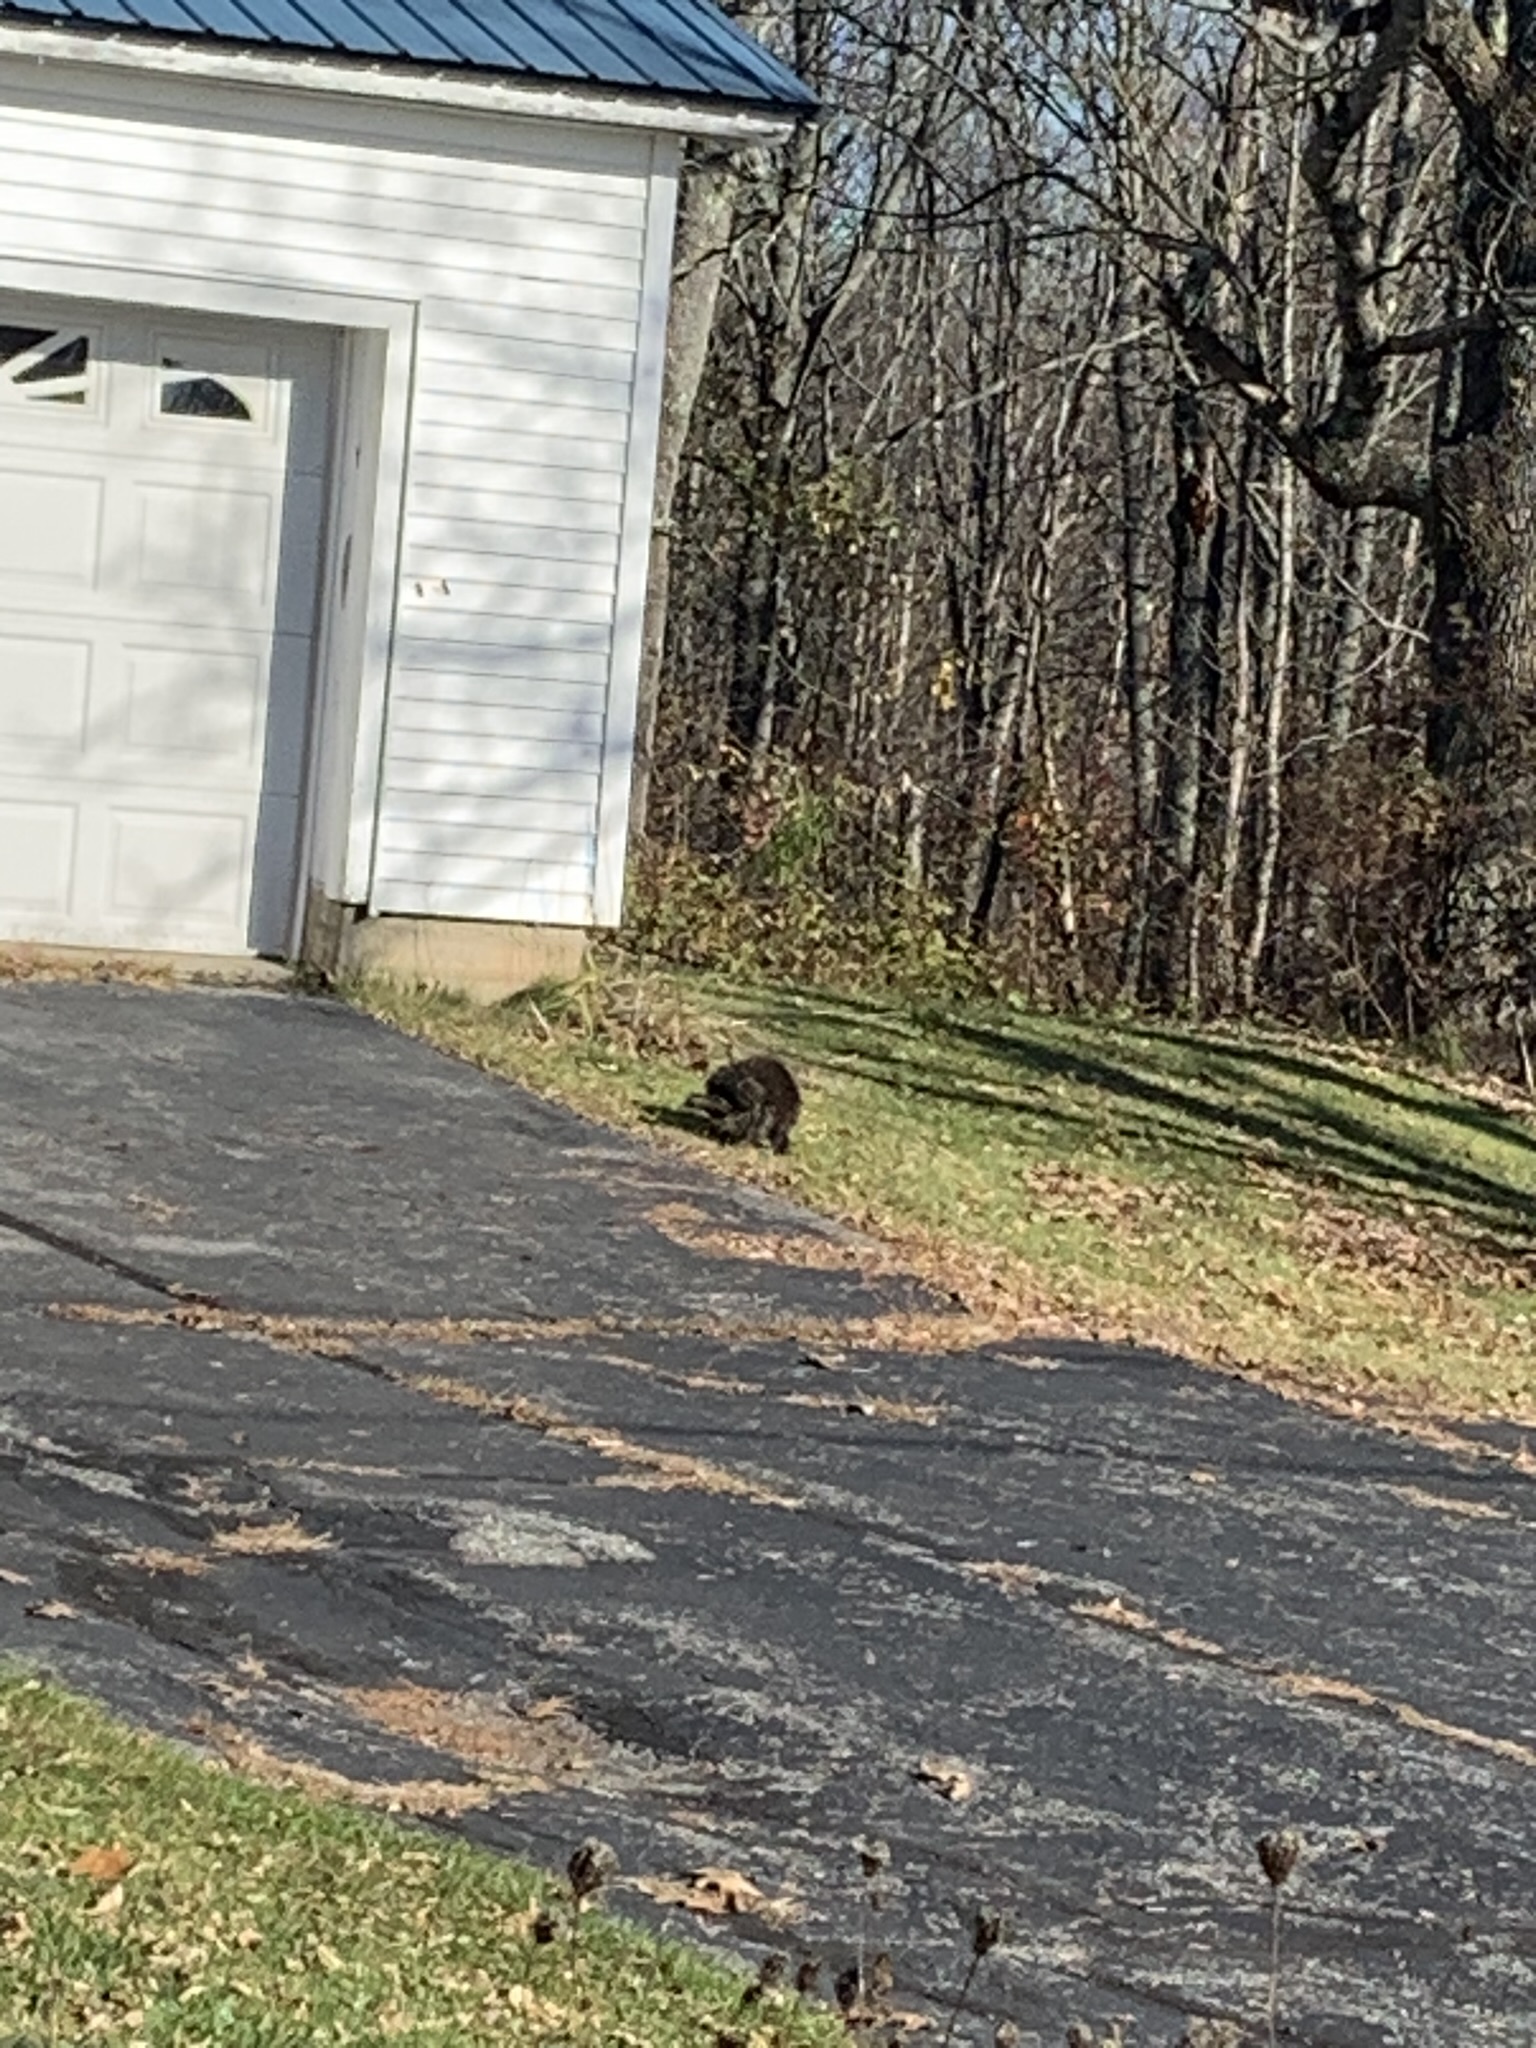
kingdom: Animalia
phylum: Chordata
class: Mammalia
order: Rodentia
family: Erethizontidae
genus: Erethizon
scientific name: Erethizon dorsatus
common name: North american porcupine
